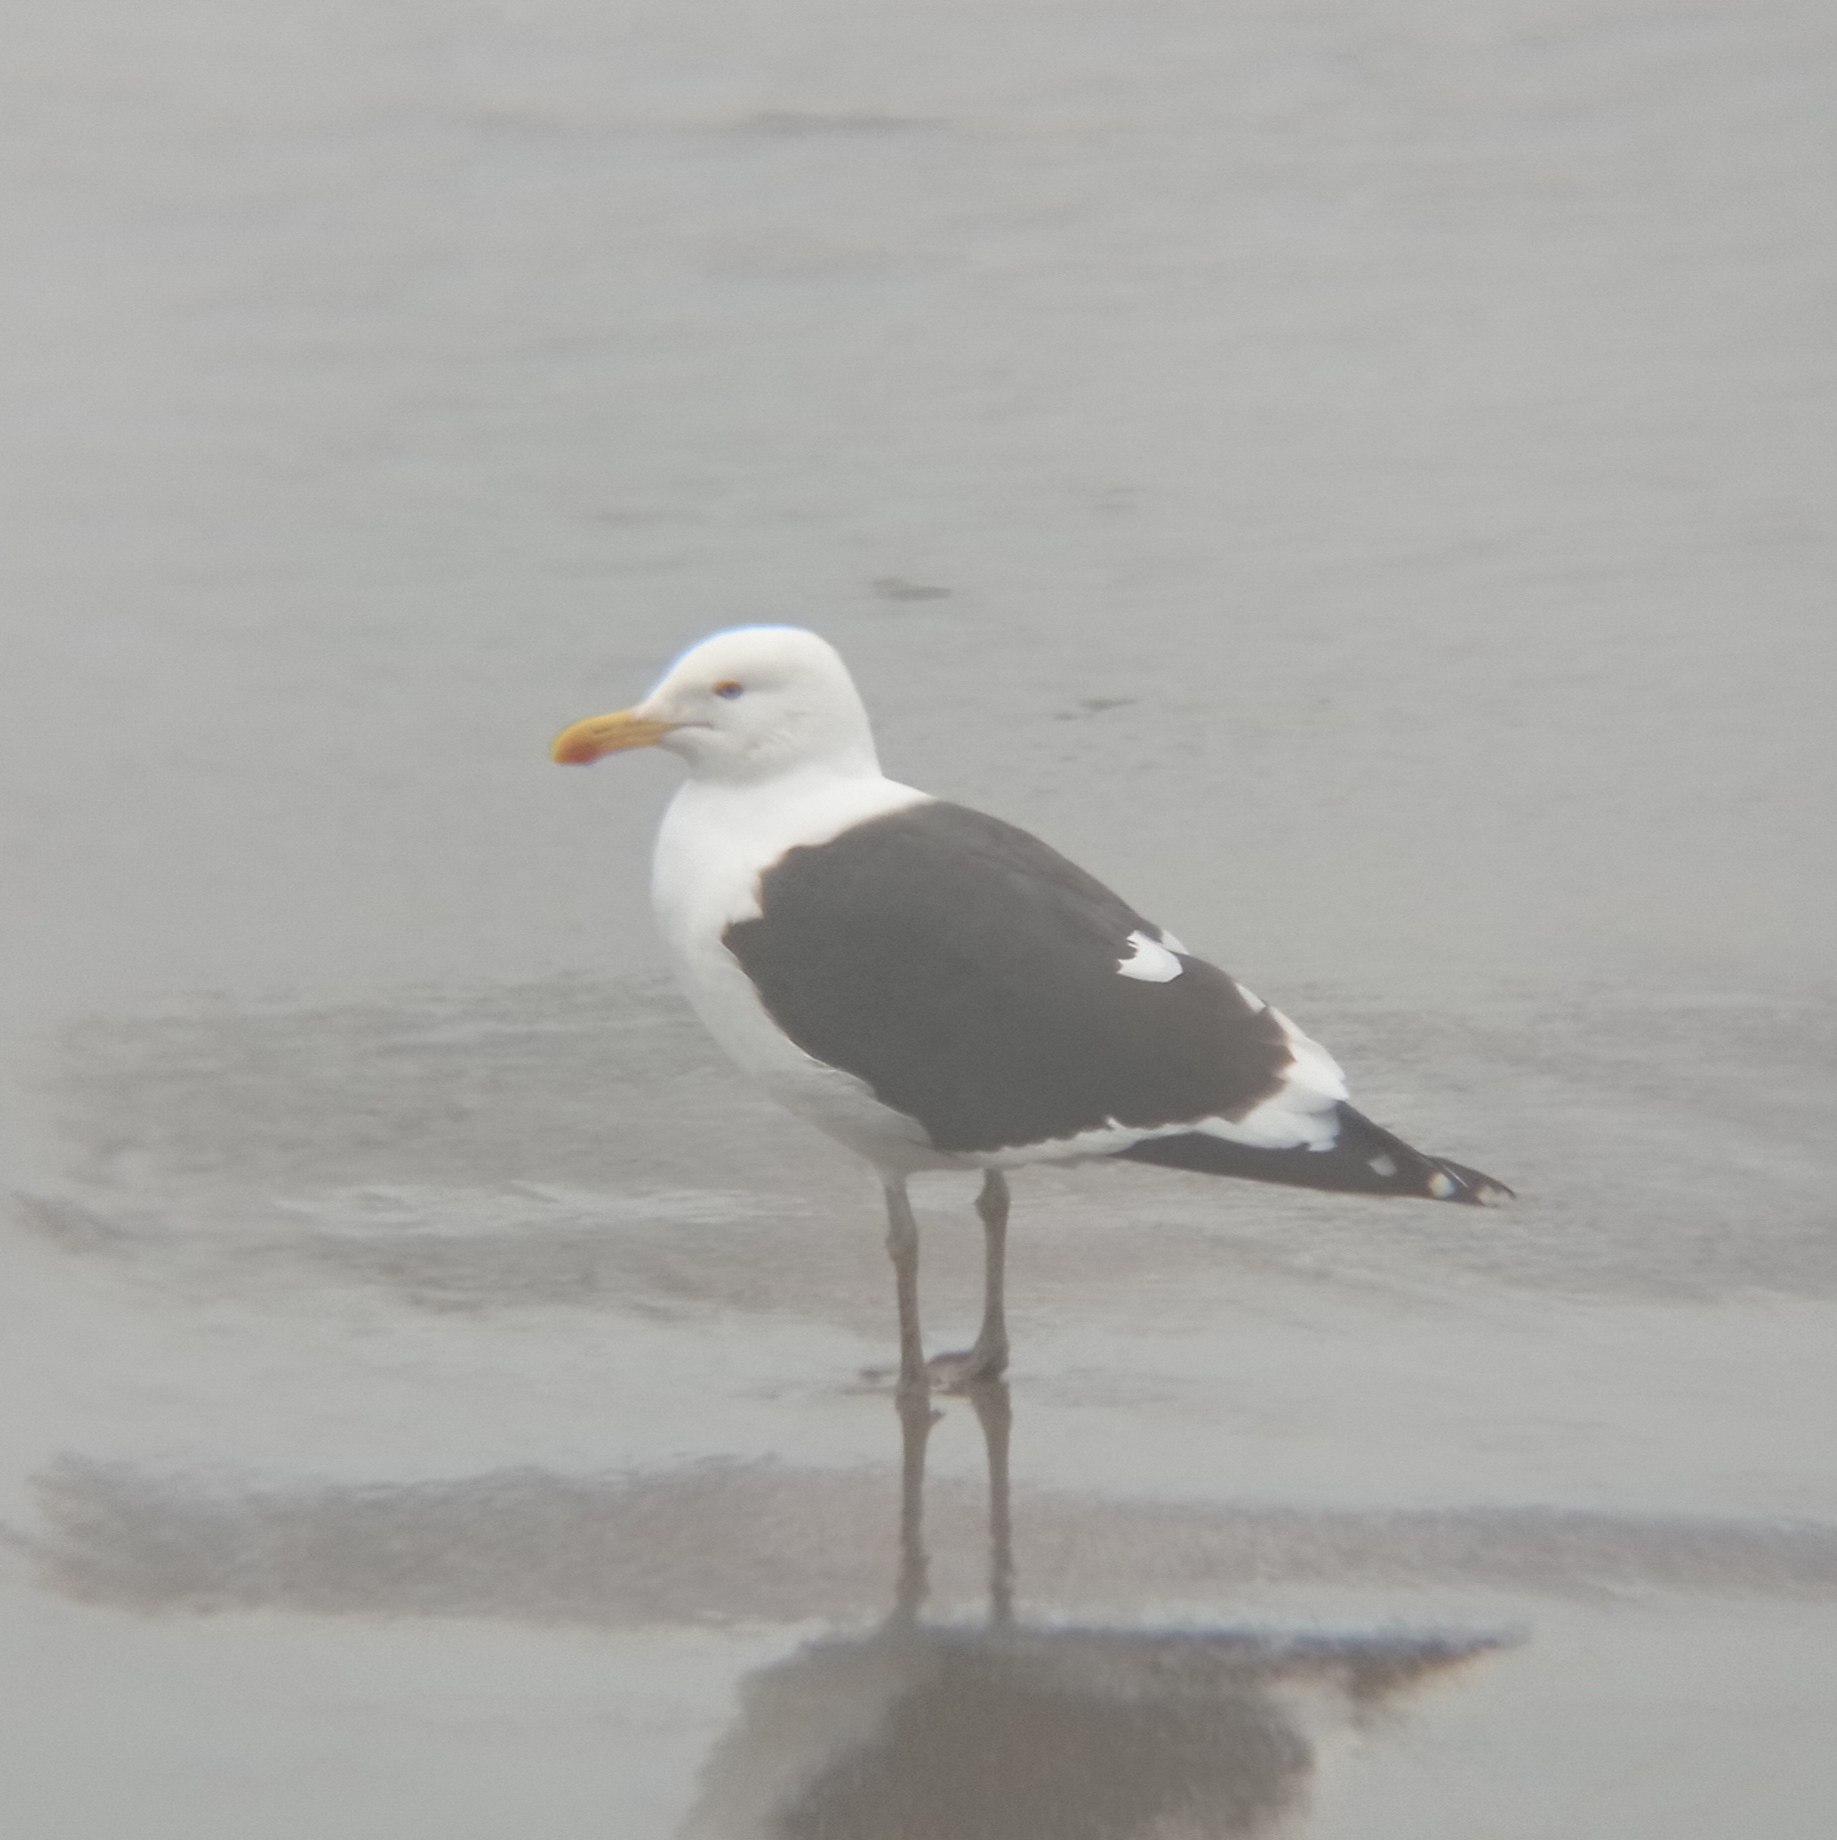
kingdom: Animalia
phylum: Chordata
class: Aves
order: Charadriiformes
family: Laridae
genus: Larus
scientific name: Larus dominicanus
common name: Kelp gull
